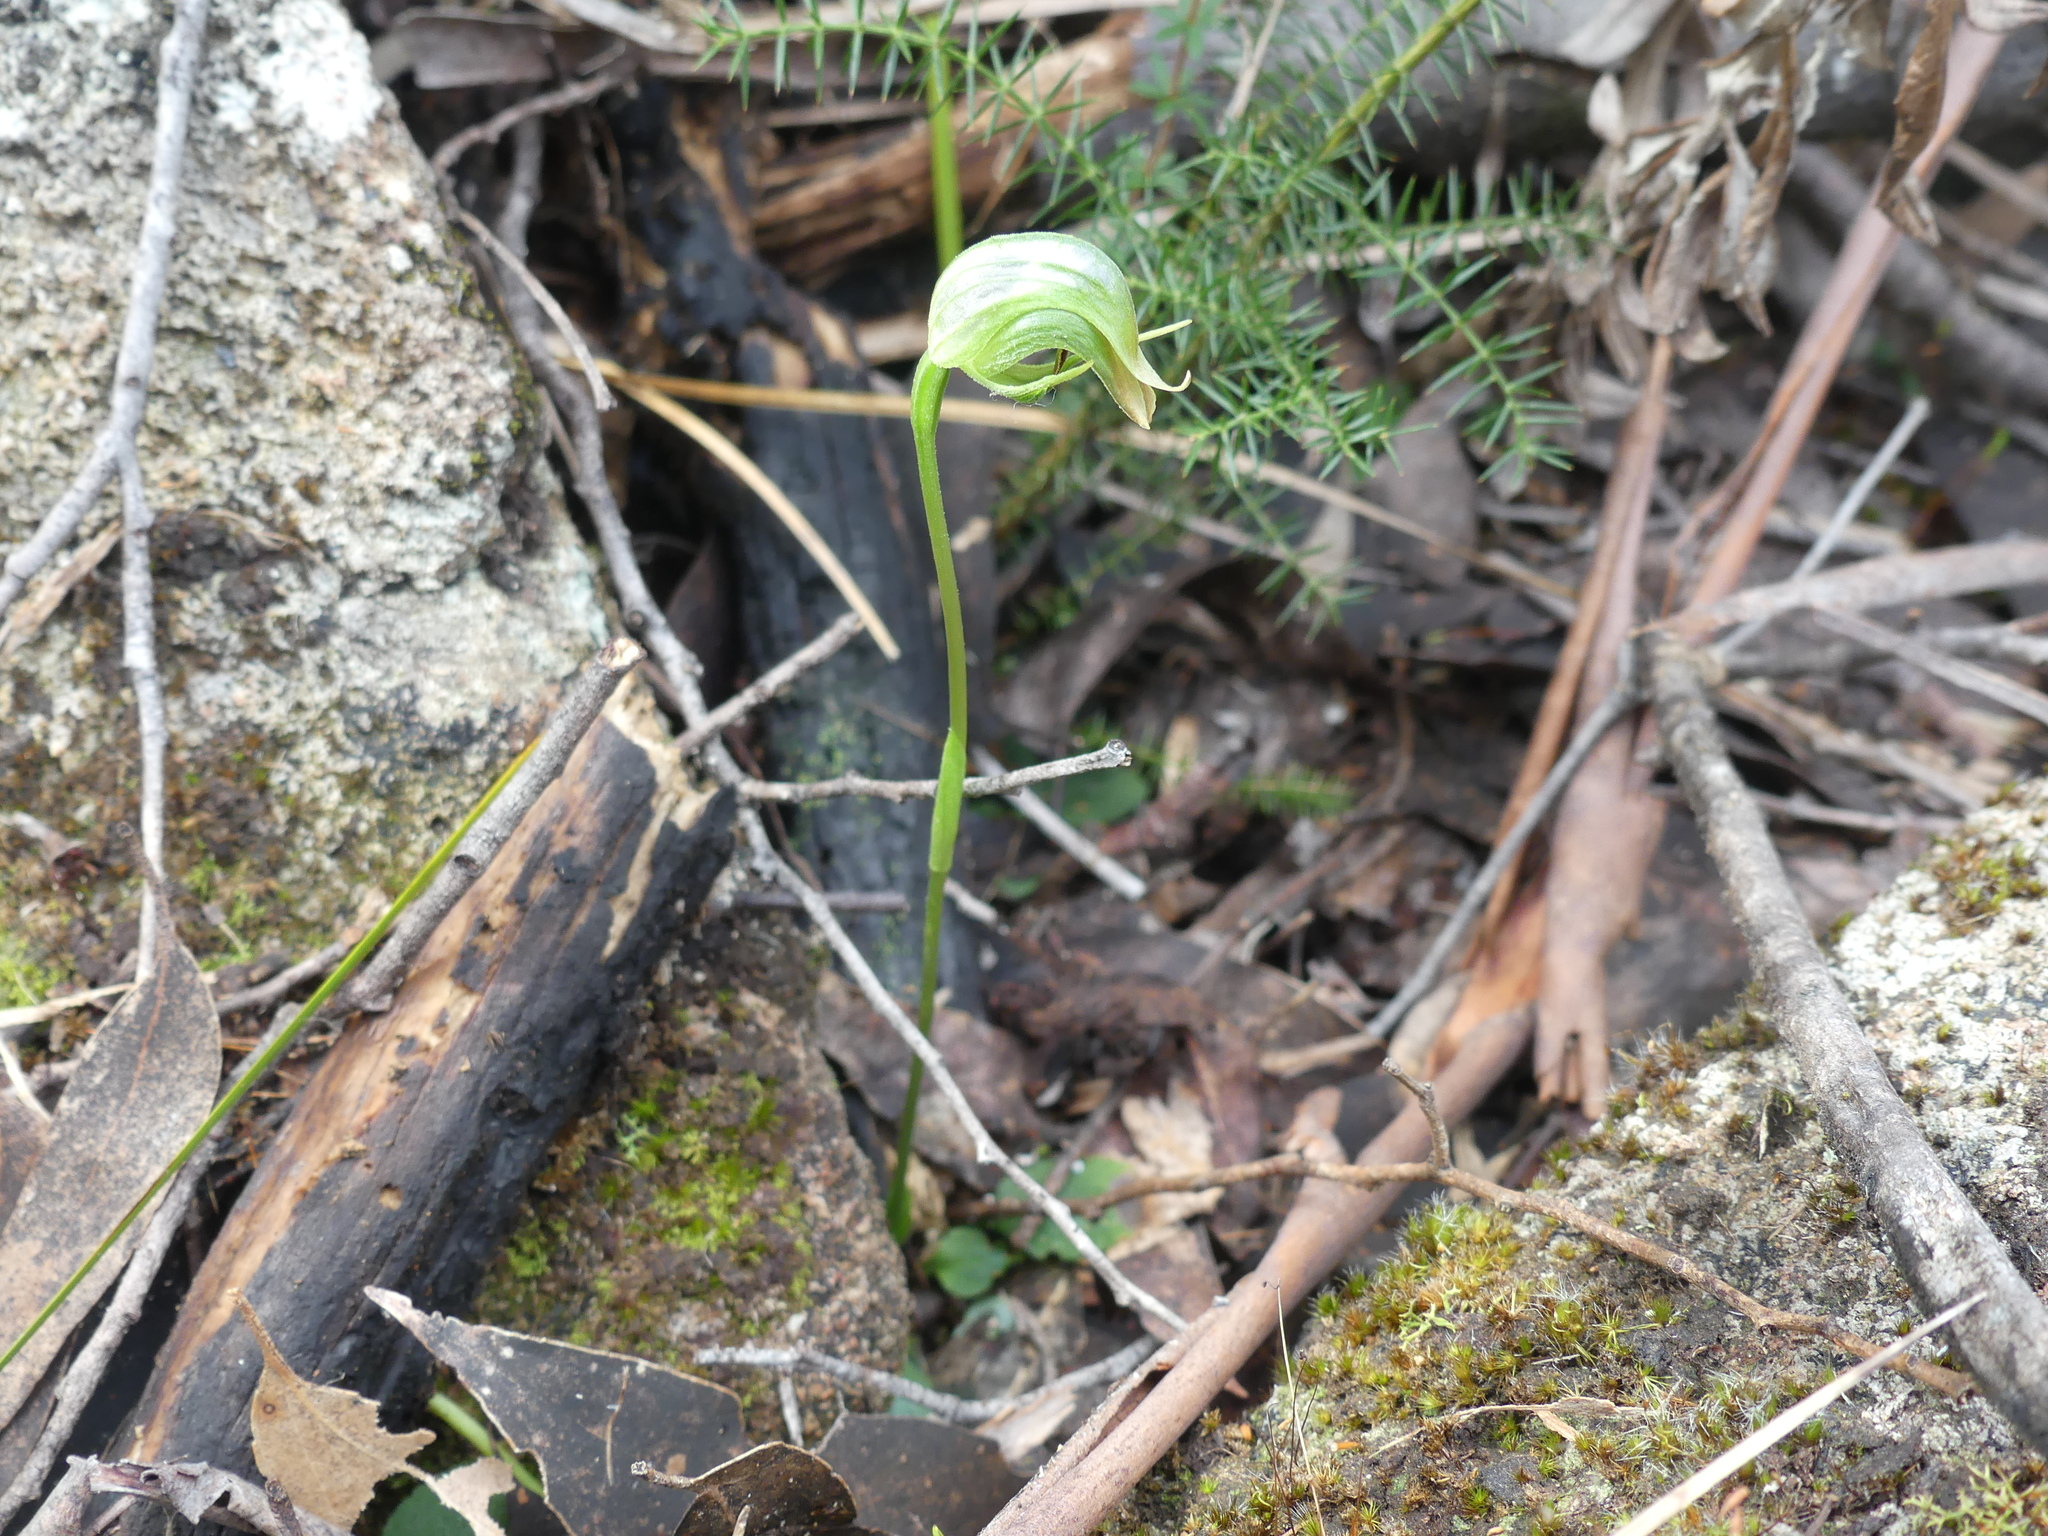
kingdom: Plantae
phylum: Tracheophyta
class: Liliopsida
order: Asparagales
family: Orchidaceae
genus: Pterostylis
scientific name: Pterostylis nutans
